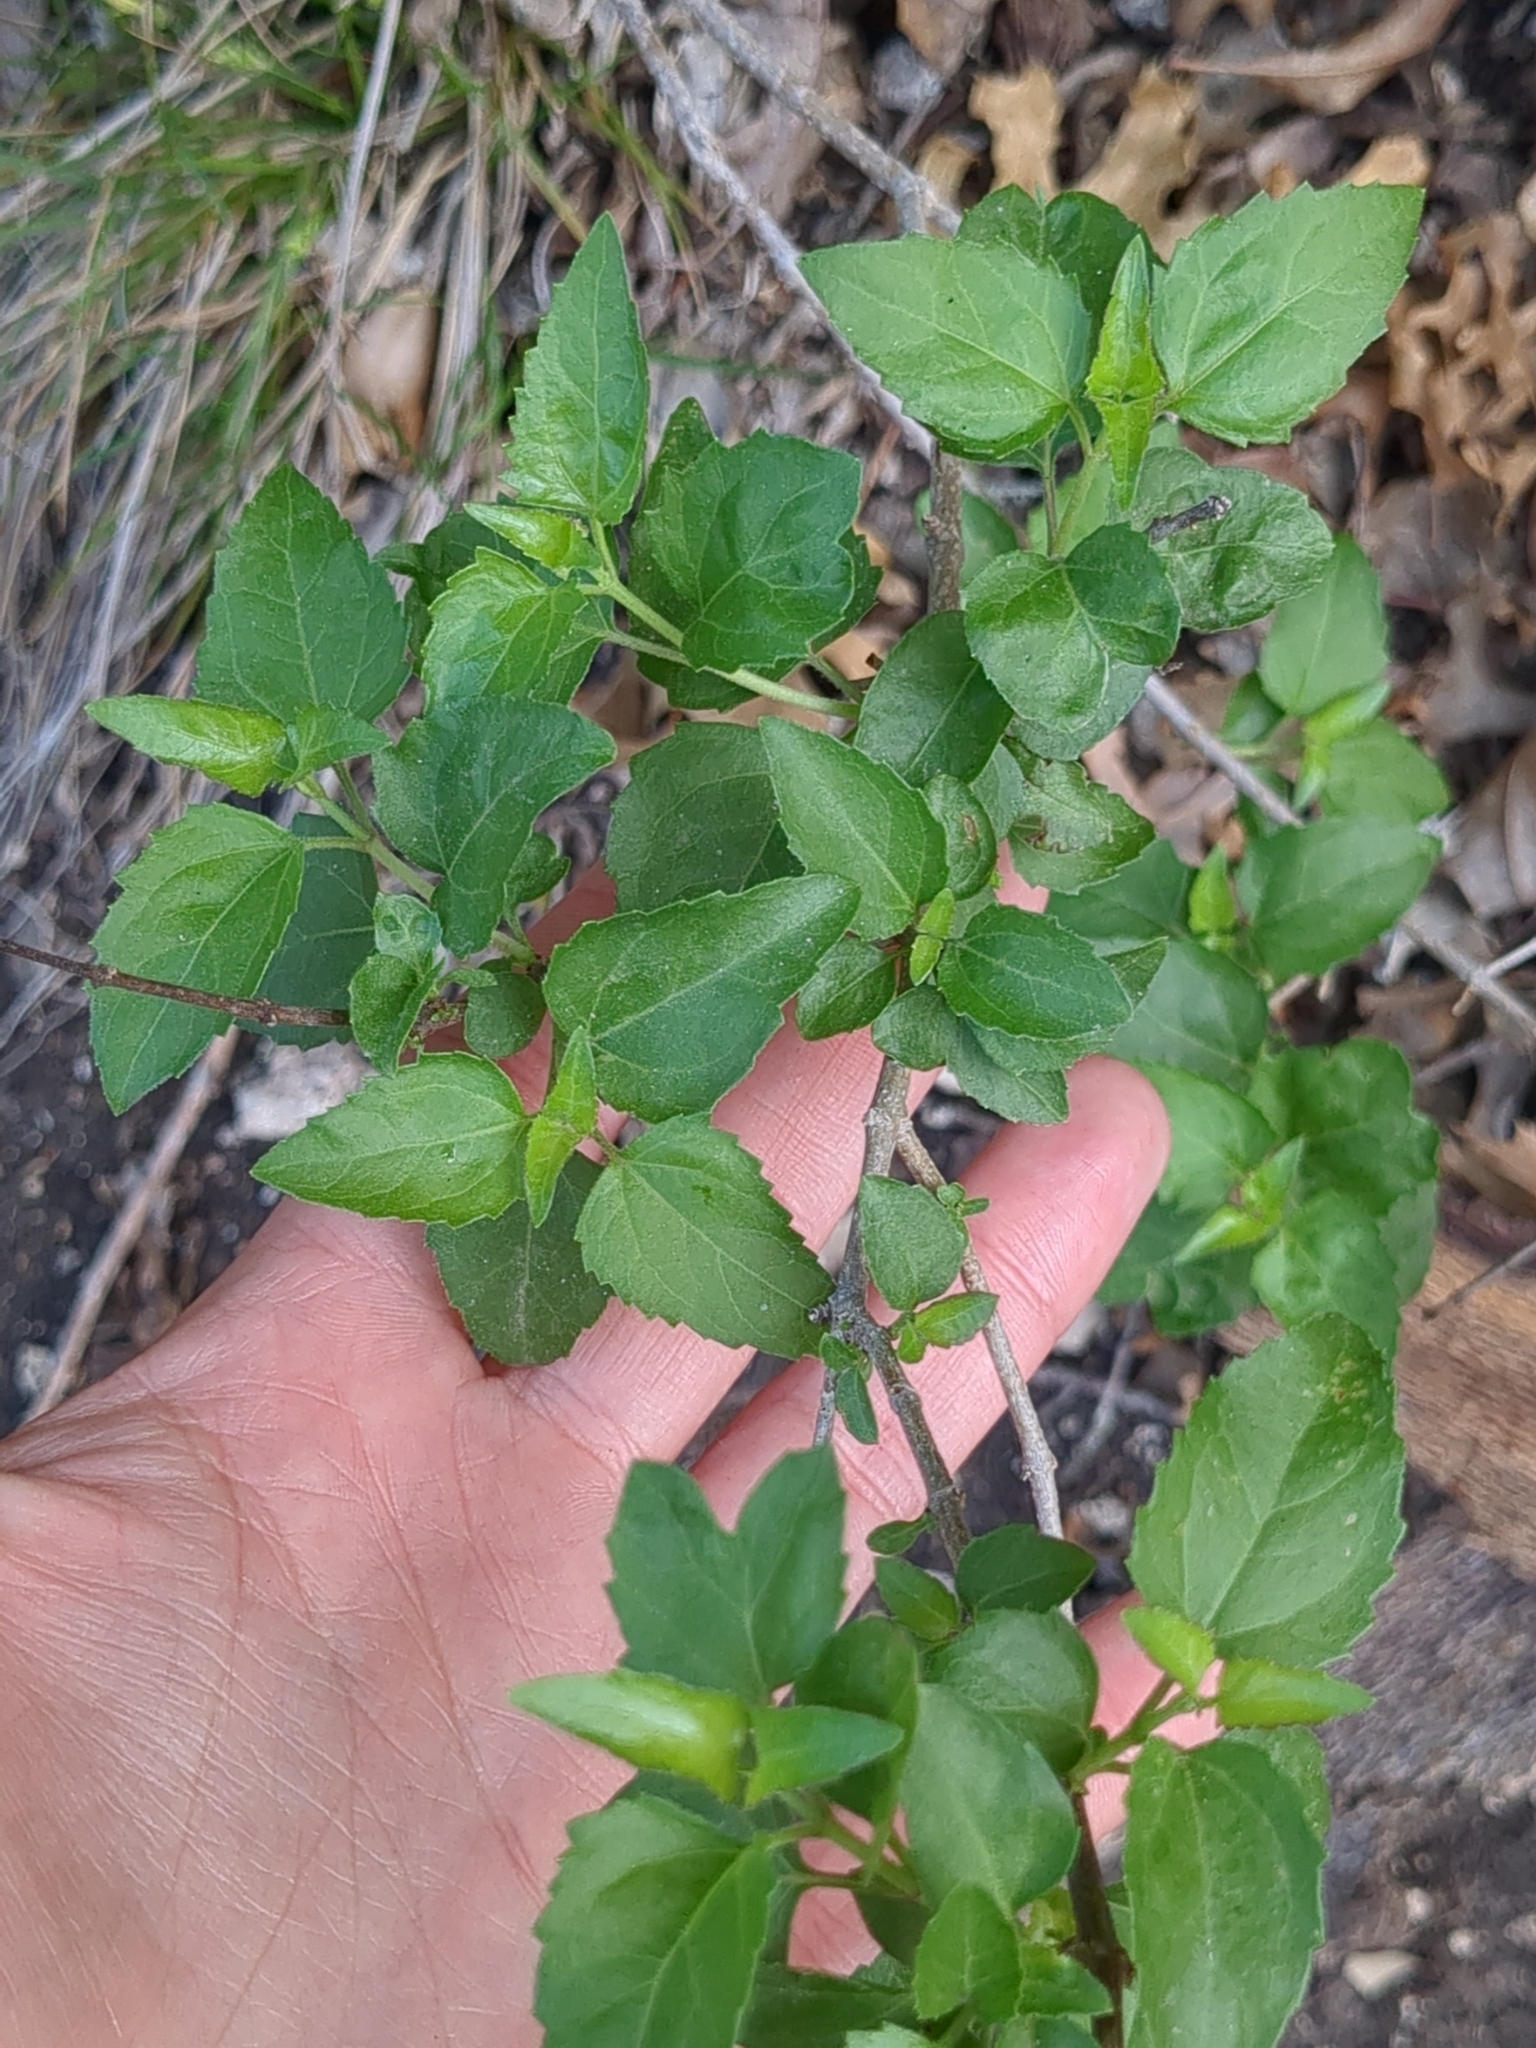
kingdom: Plantae
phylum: Tracheophyta
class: Magnoliopsida
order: Asterales
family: Asteraceae
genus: Ageratina
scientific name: Ageratina havanensis
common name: Havana snakeroot
